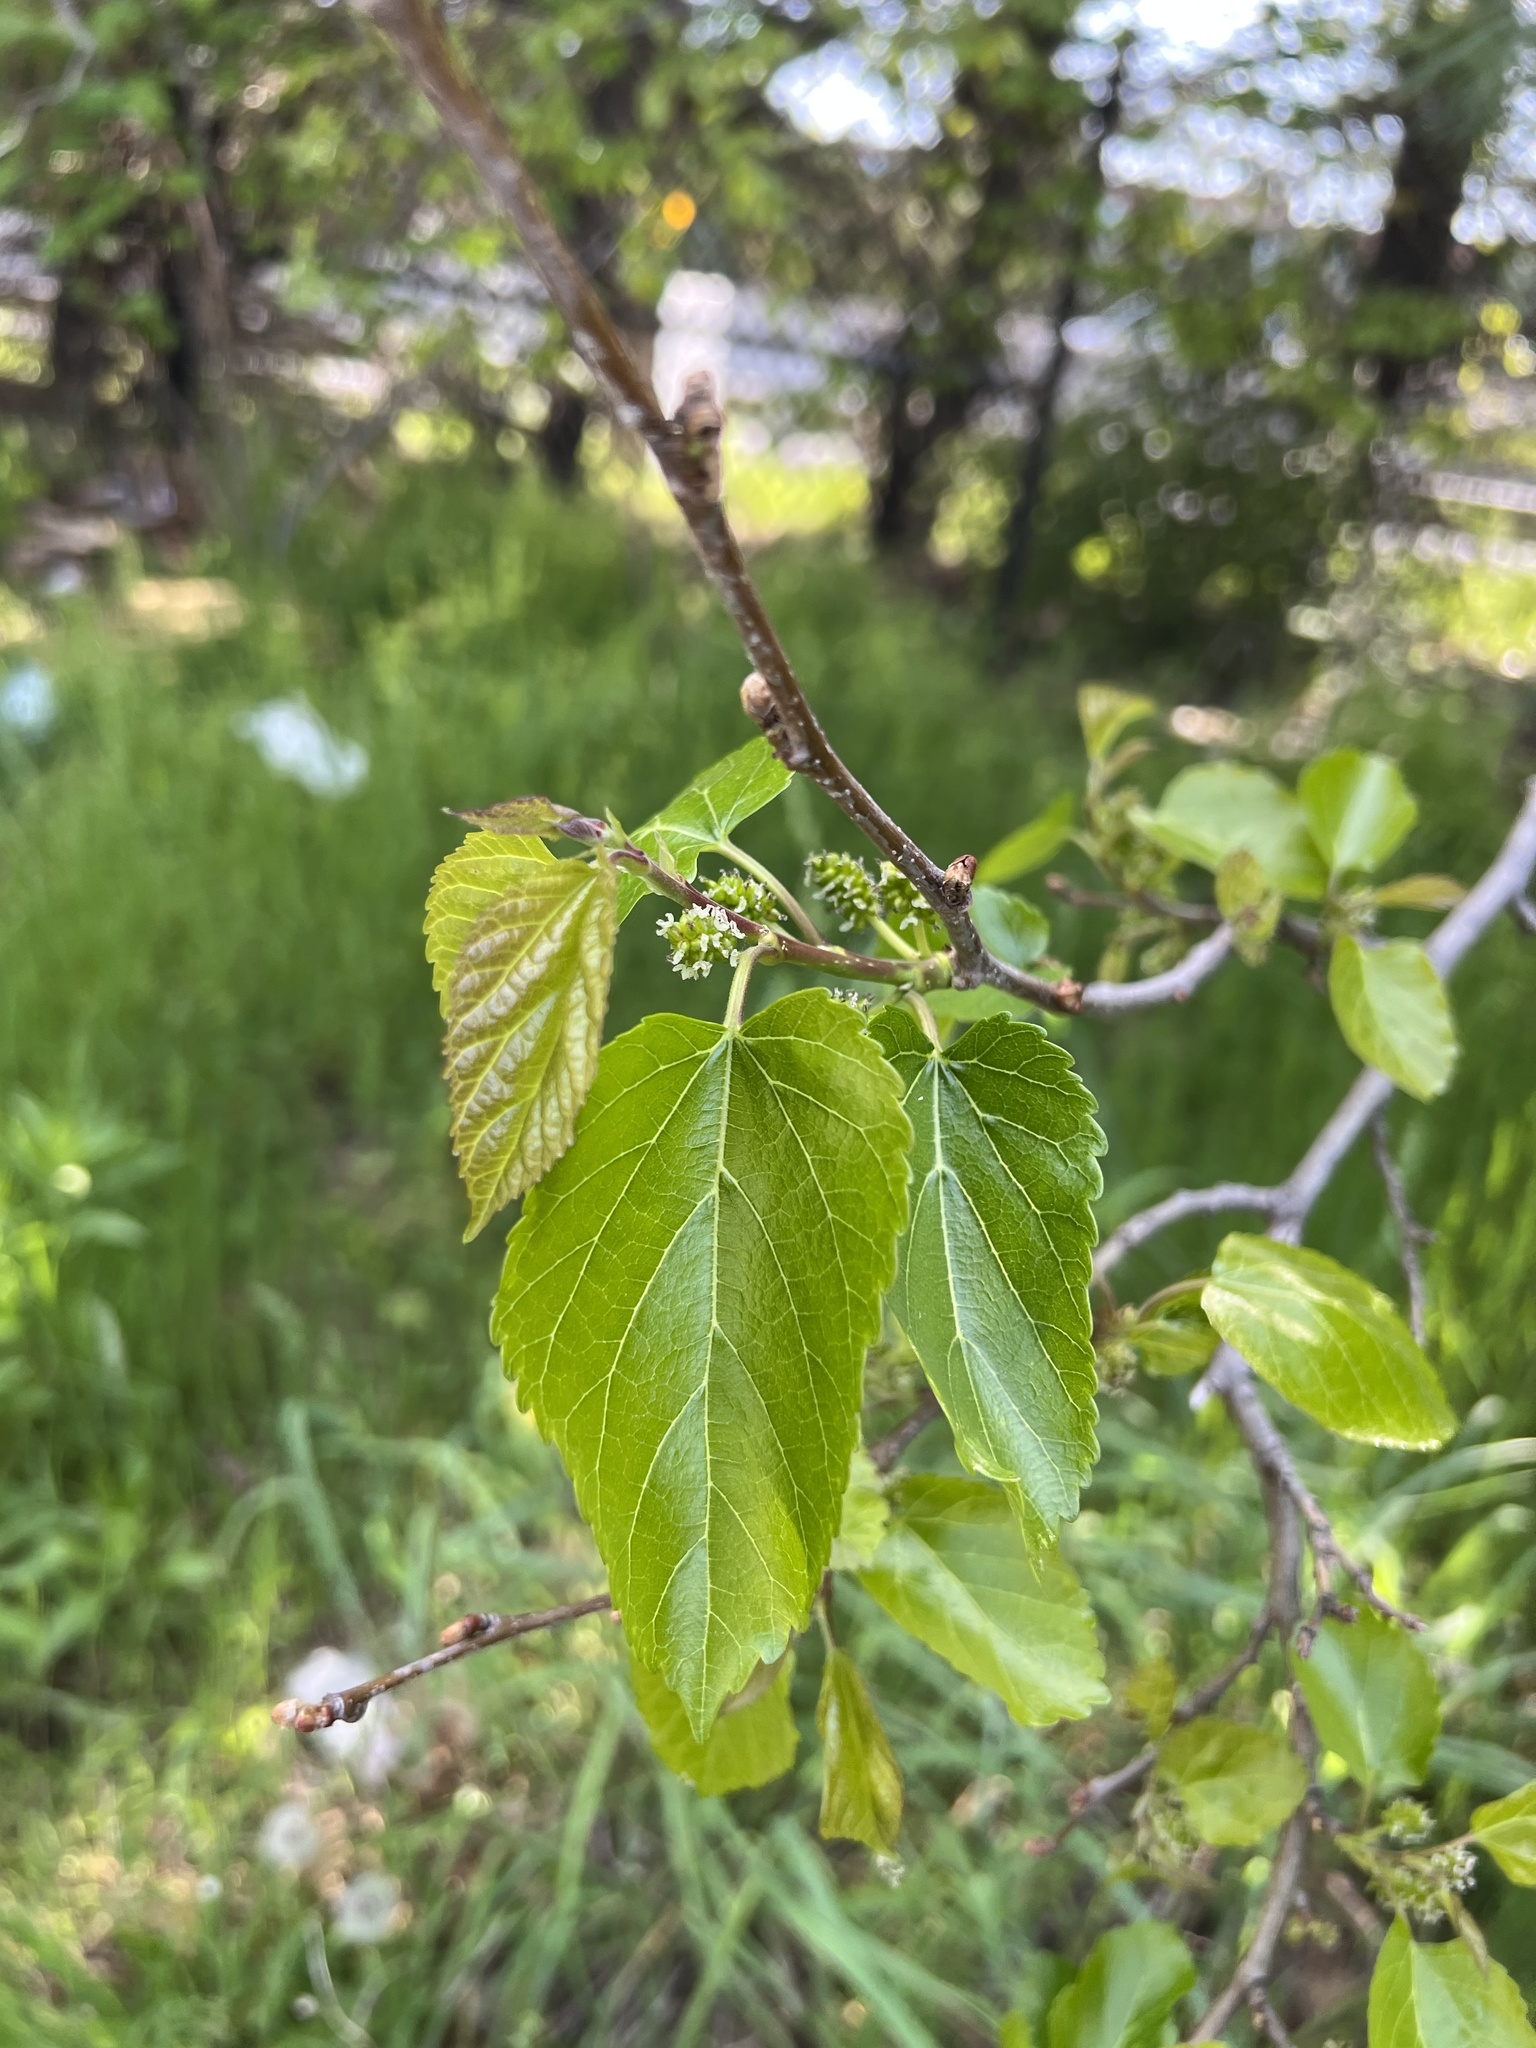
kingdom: Plantae
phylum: Tracheophyta
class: Magnoliopsida
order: Rosales
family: Moraceae
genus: Morus
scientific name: Morus alba
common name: White mulberry
